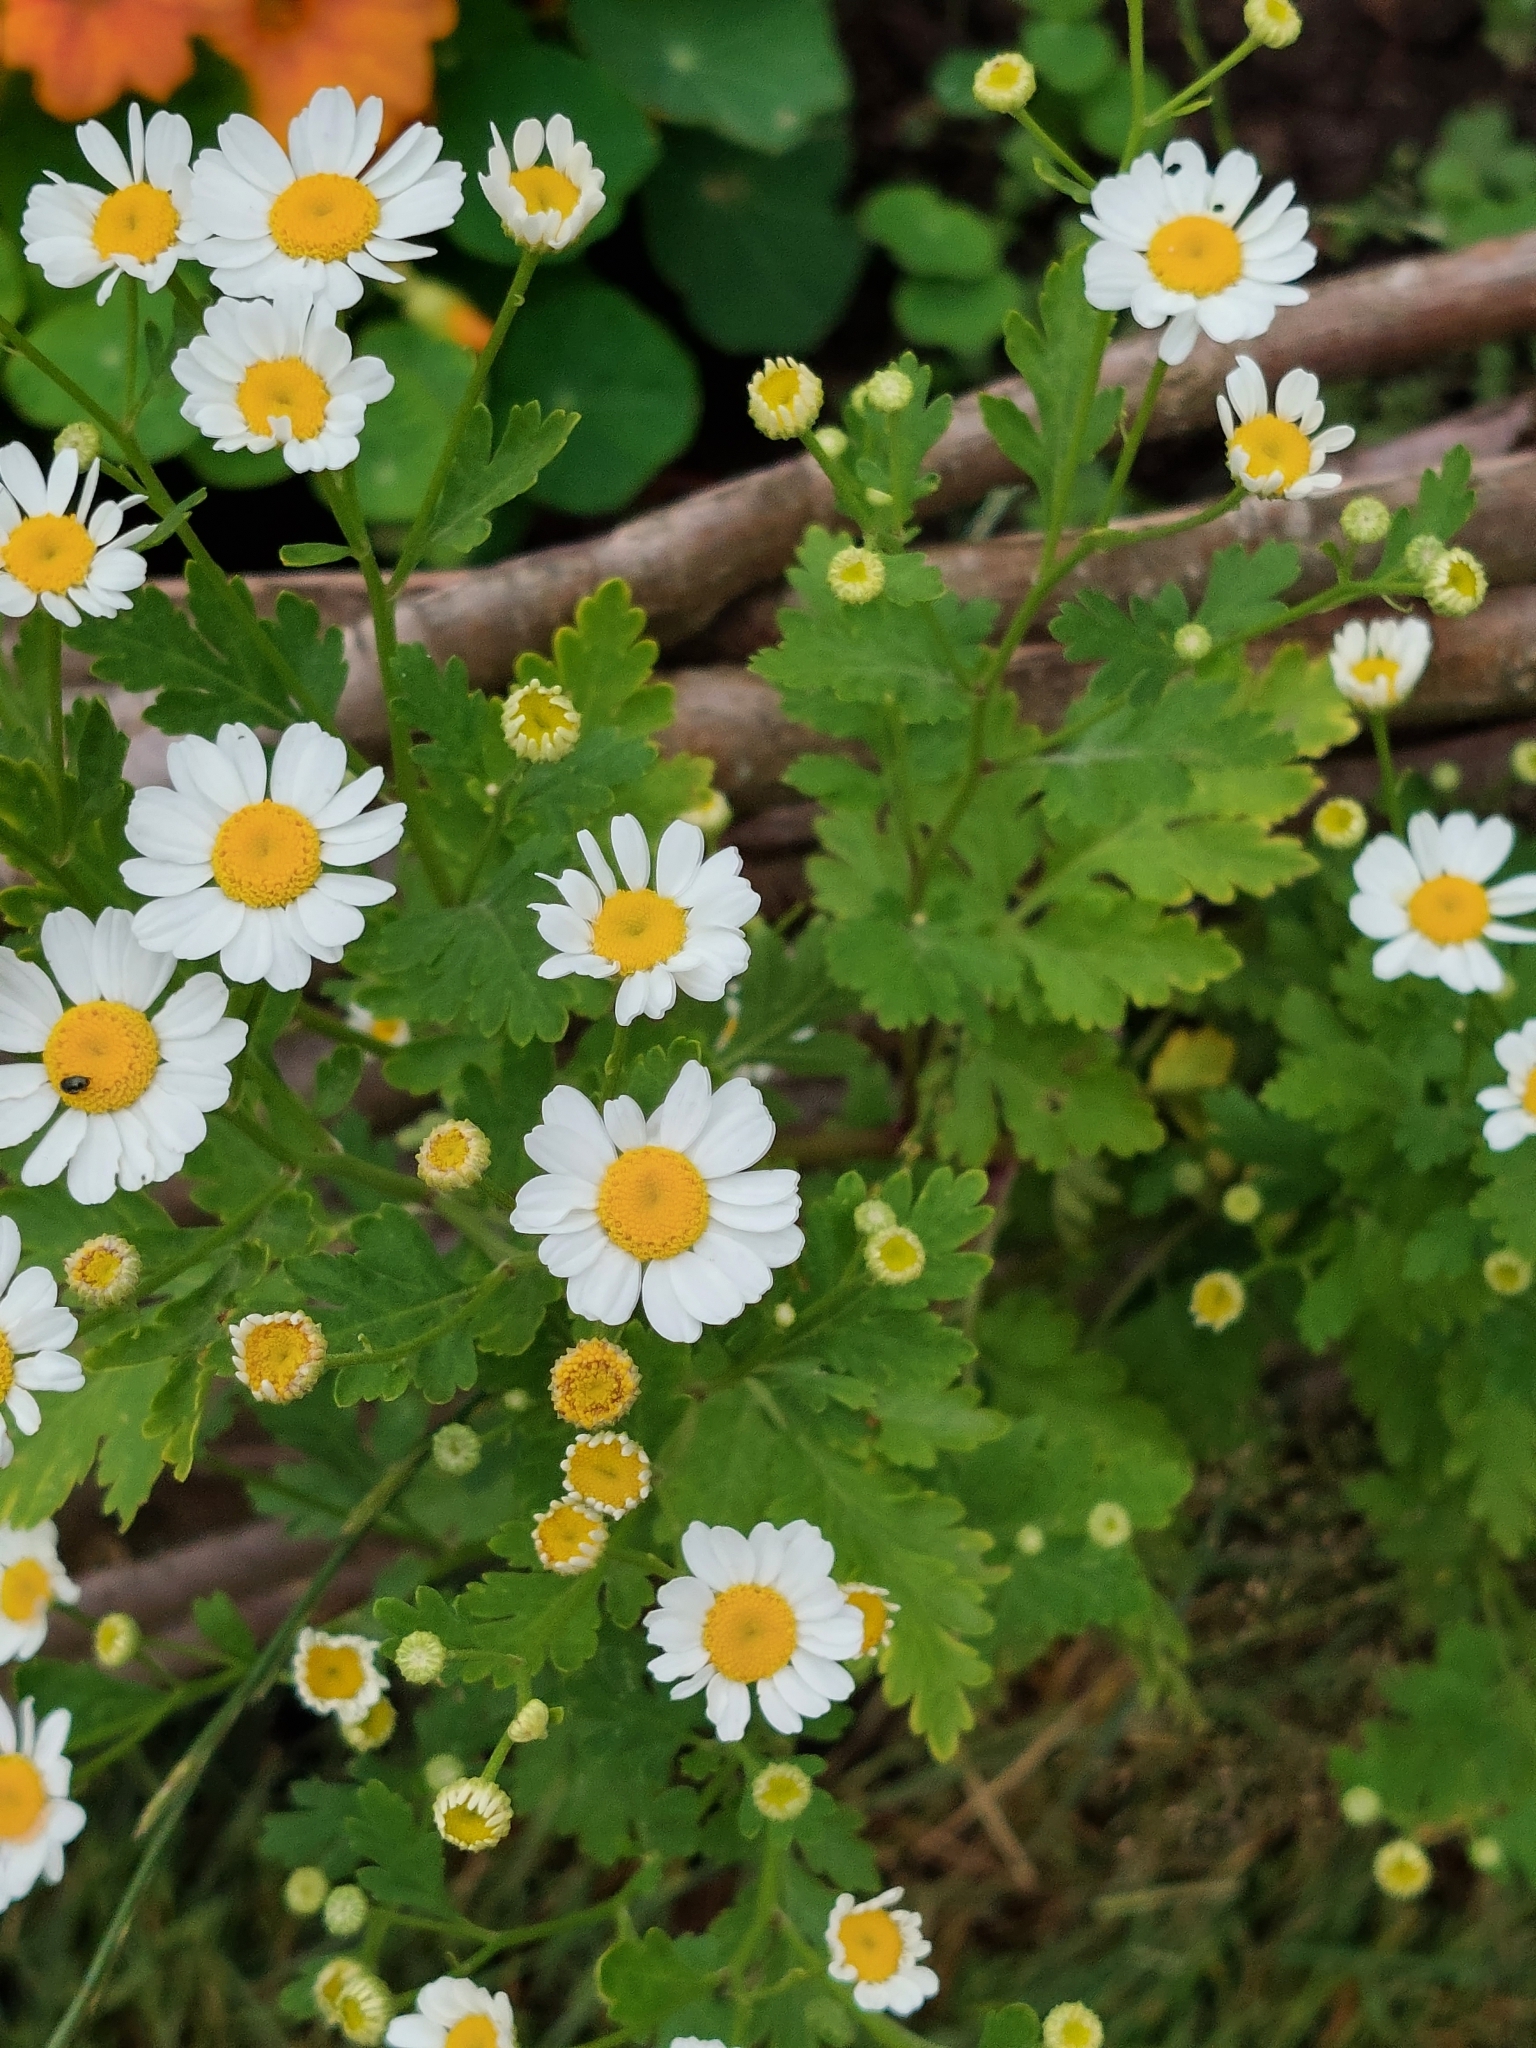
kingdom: Plantae
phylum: Tracheophyta
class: Magnoliopsida
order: Asterales
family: Asteraceae
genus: Tanacetum
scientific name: Tanacetum parthenium
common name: Feverfew
